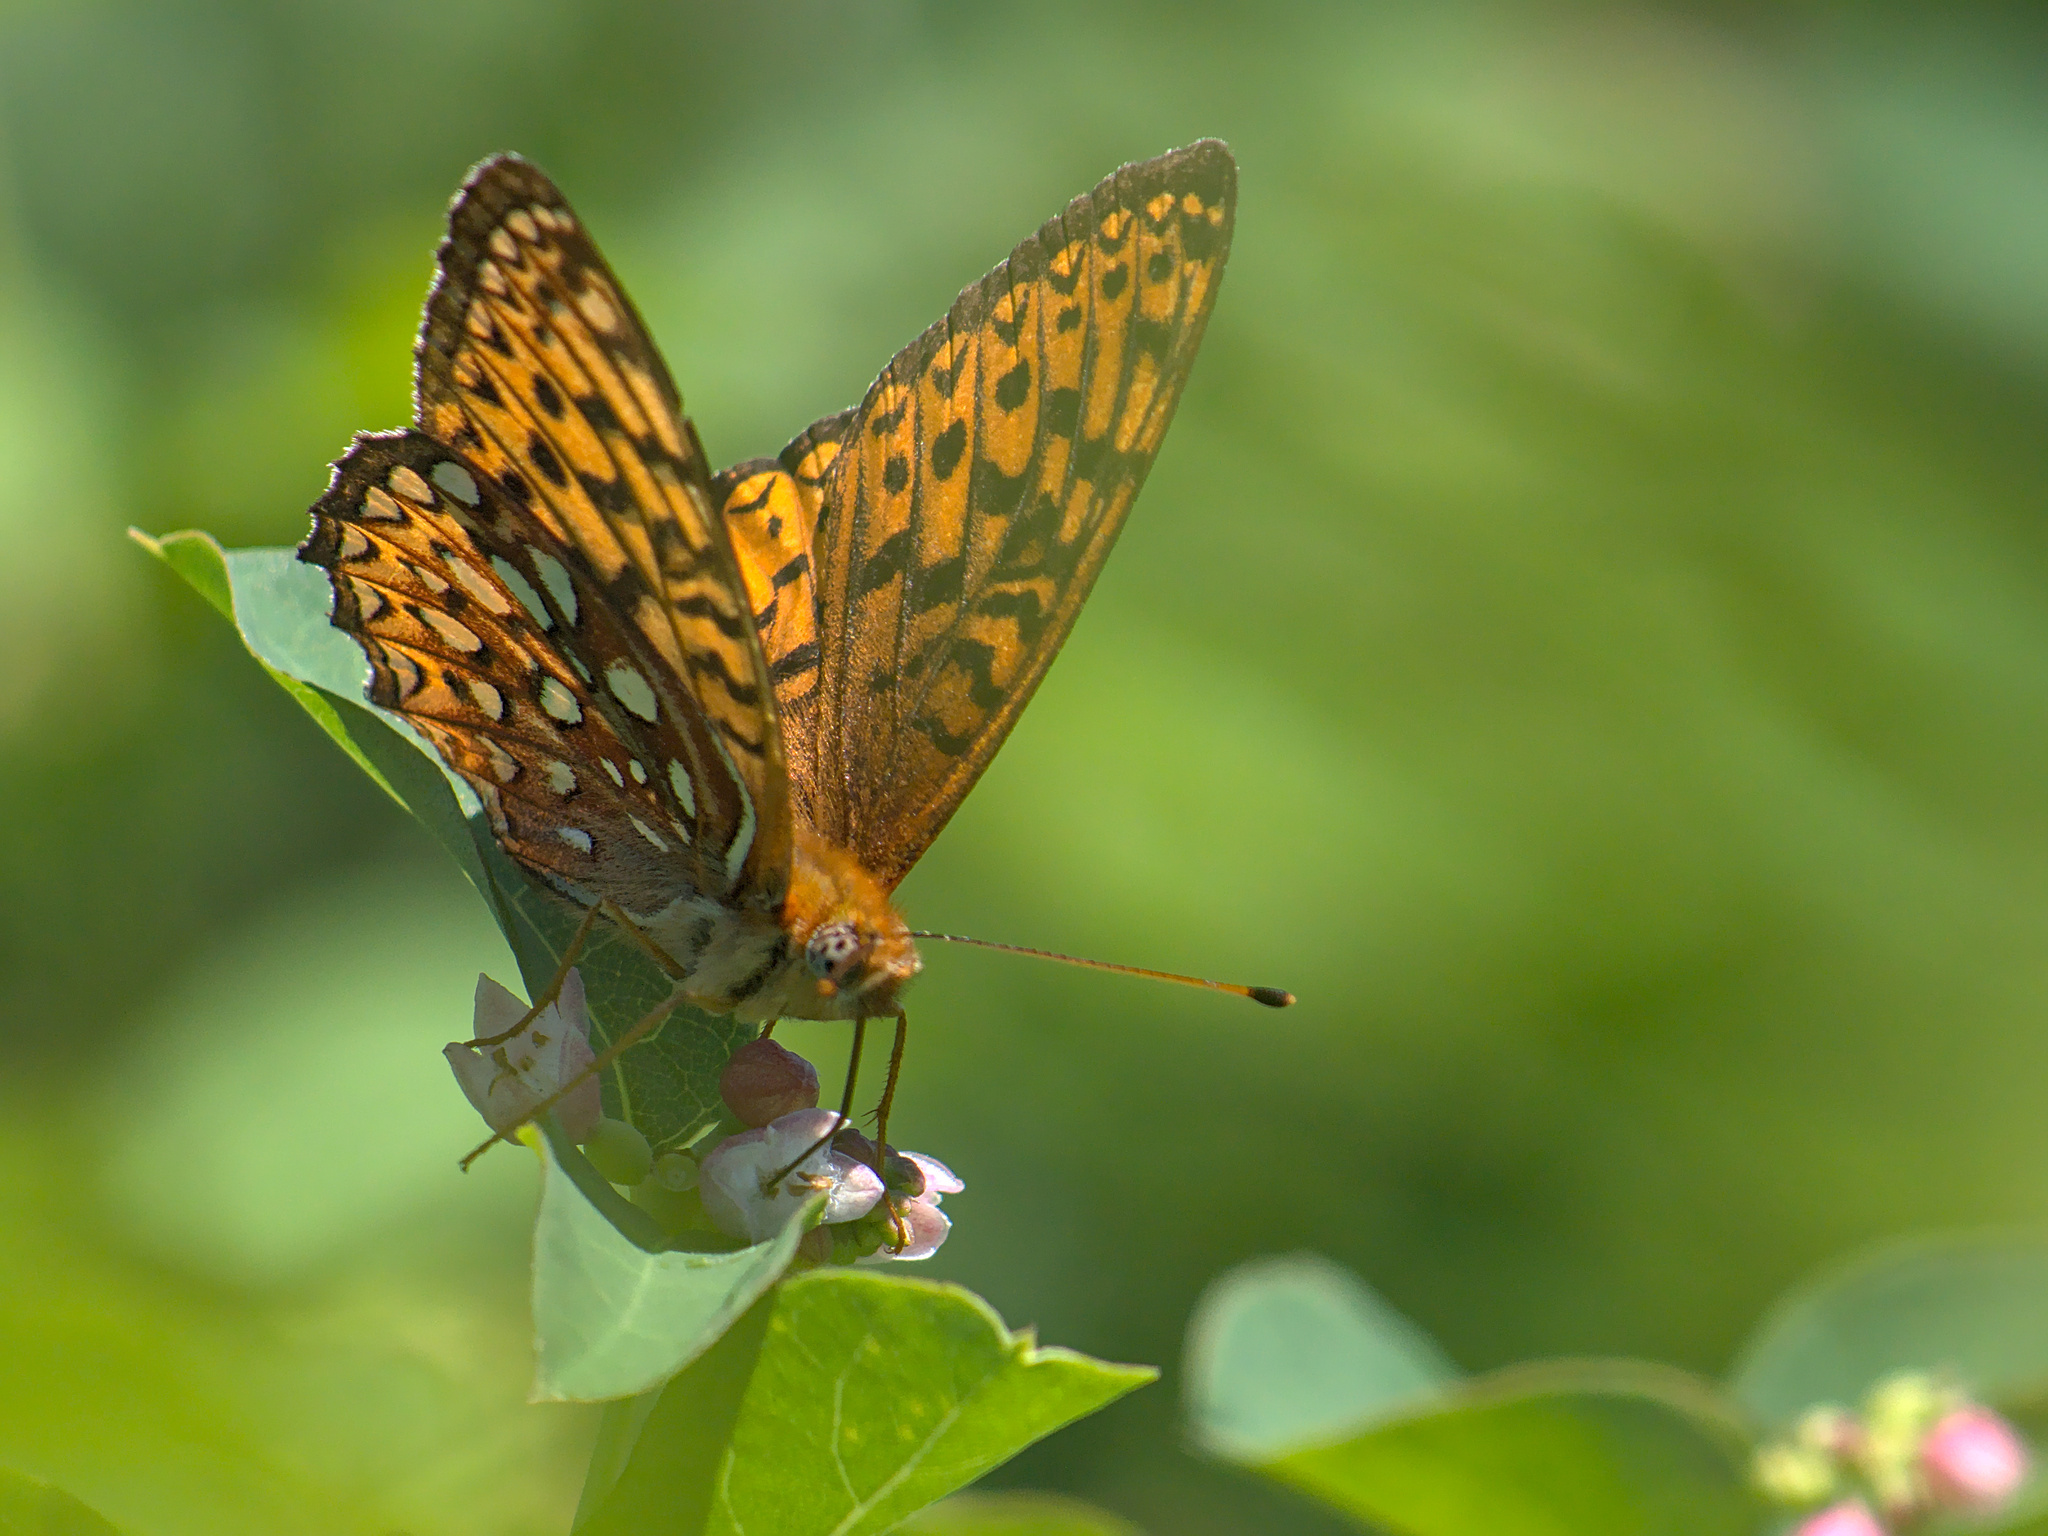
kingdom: Animalia
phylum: Arthropoda
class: Insecta
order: Lepidoptera
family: Nymphalidae
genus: Speyeria
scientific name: Speyeria atlantis
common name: Atlantis fritillary
